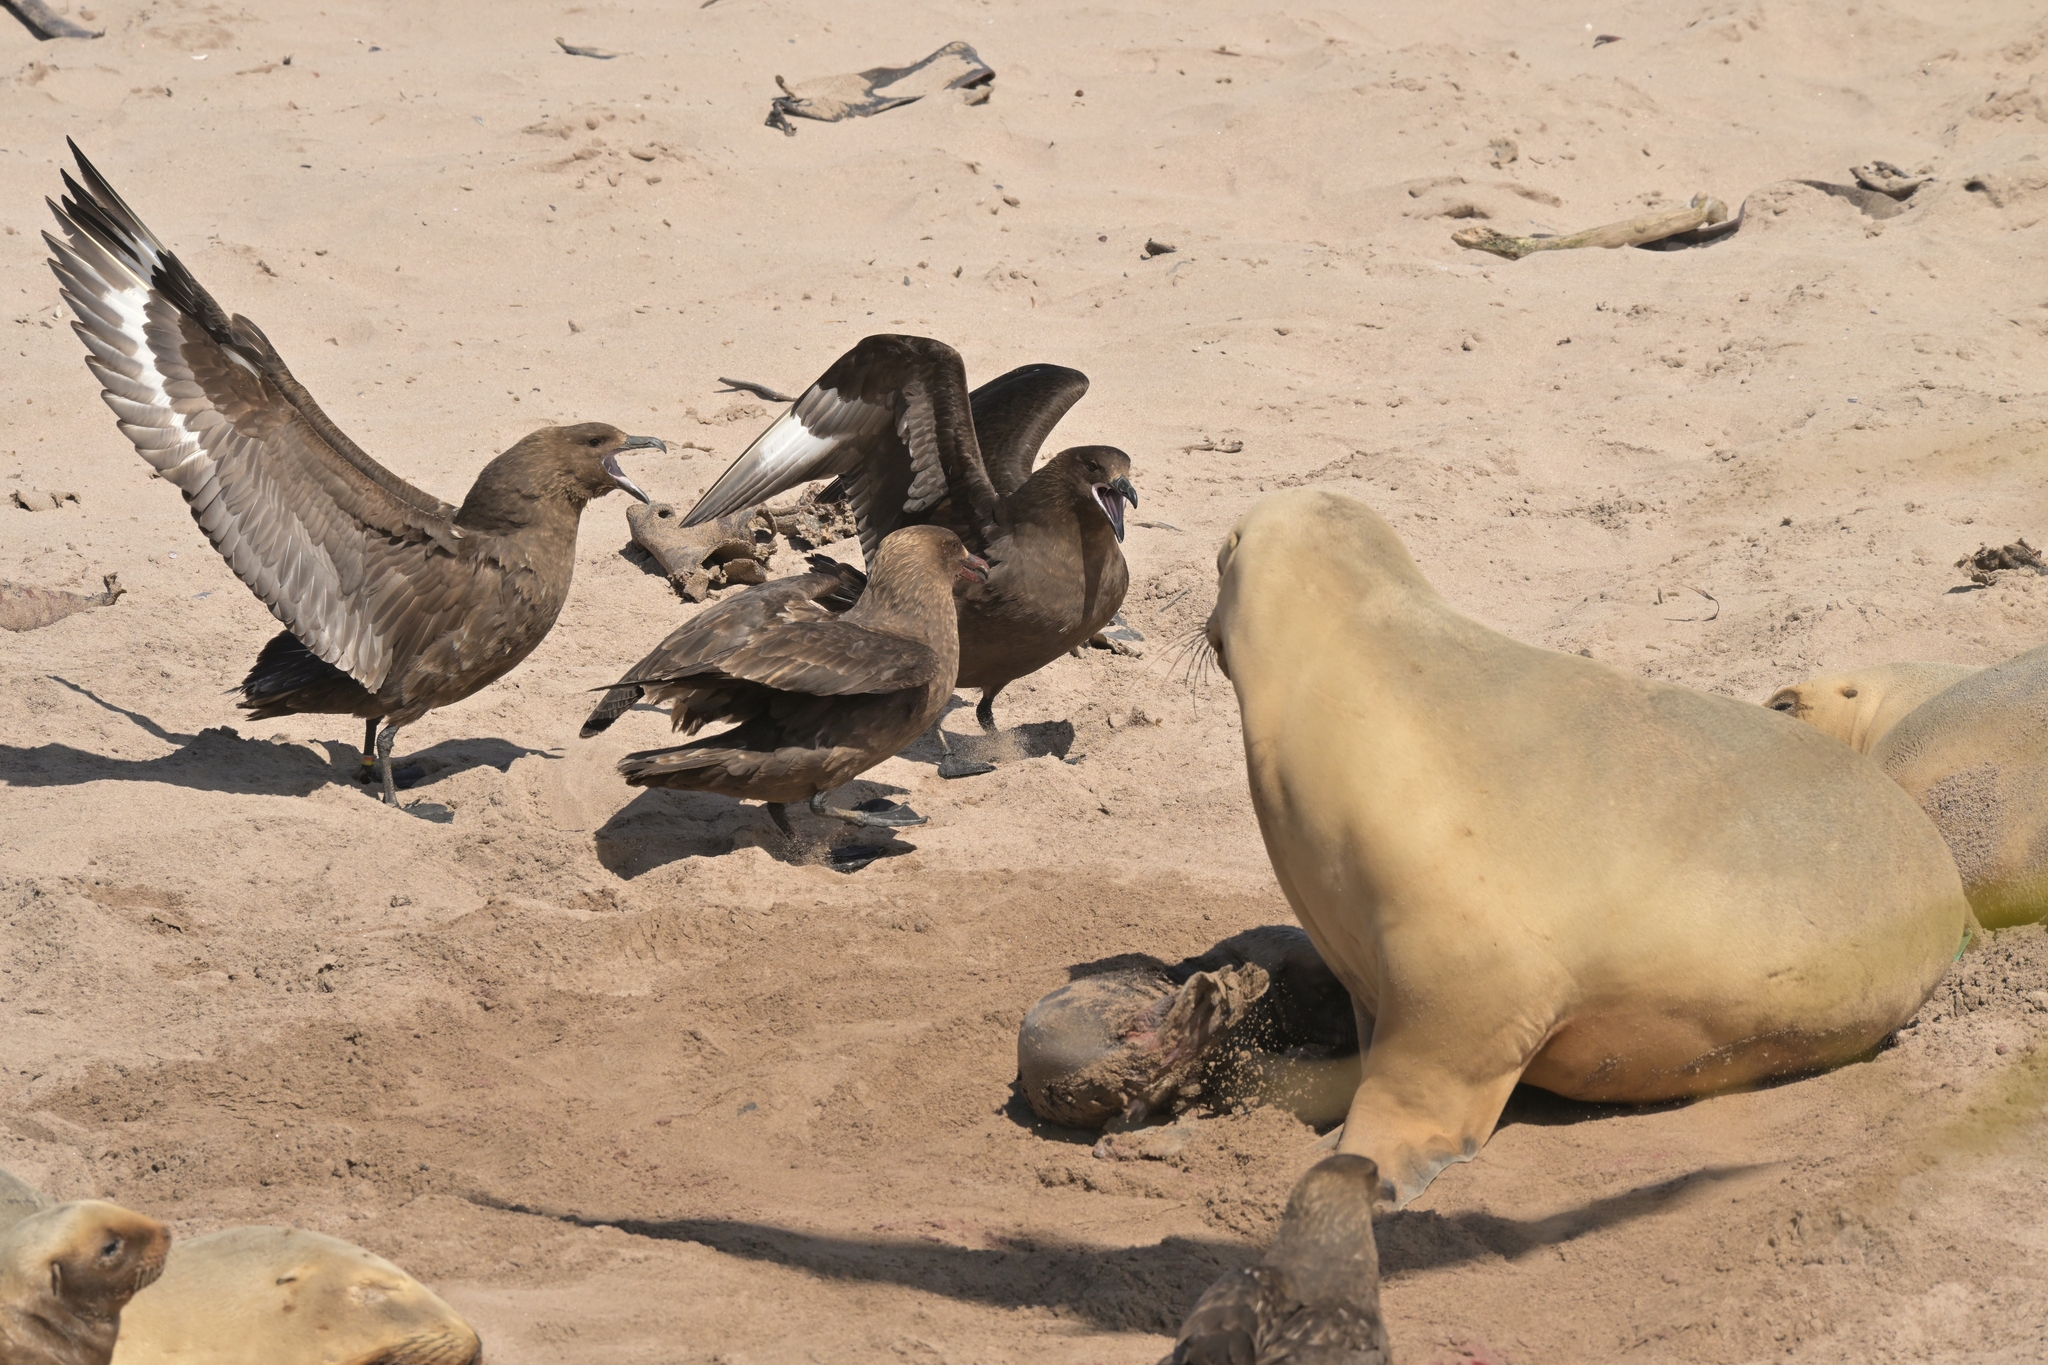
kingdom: Animalia
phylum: Chordata
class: Mammalia
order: Carnivora
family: Otariidae
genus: Phocarctos
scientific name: Phocarctos hookeri
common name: New zealand sea lion
